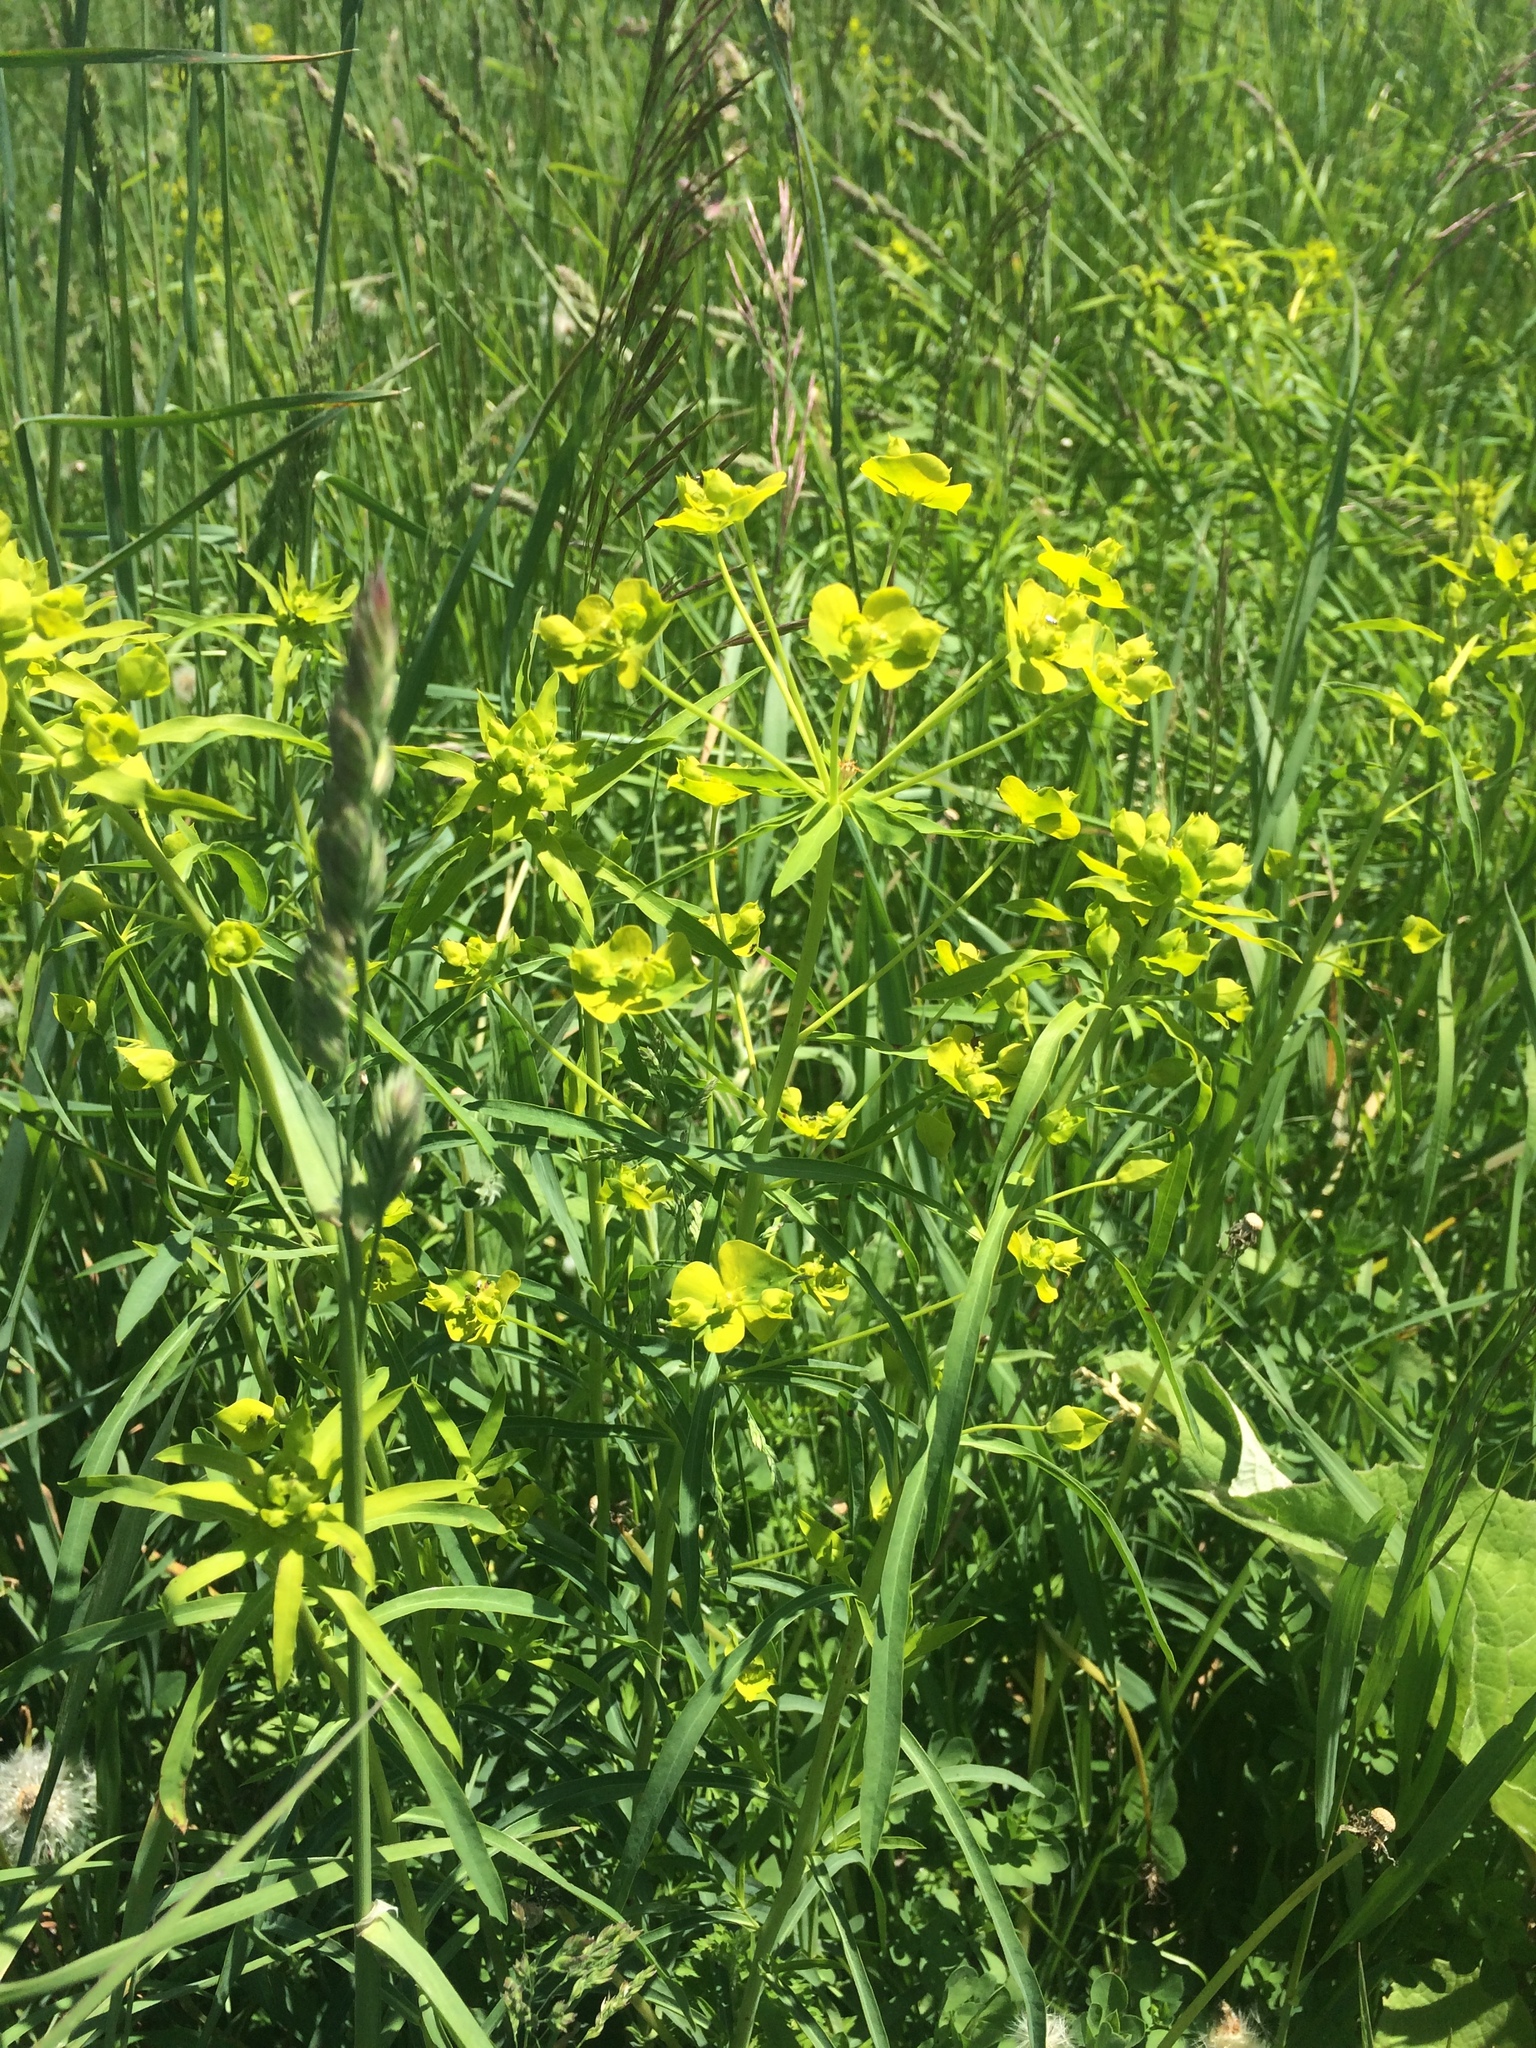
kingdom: Plantae
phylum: Tracheophyta
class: Magnoliopsida
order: Malpighiales
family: Euphorbiaceae
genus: Euphorbia
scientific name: Euphorbia virgata
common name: Leafy spurge
